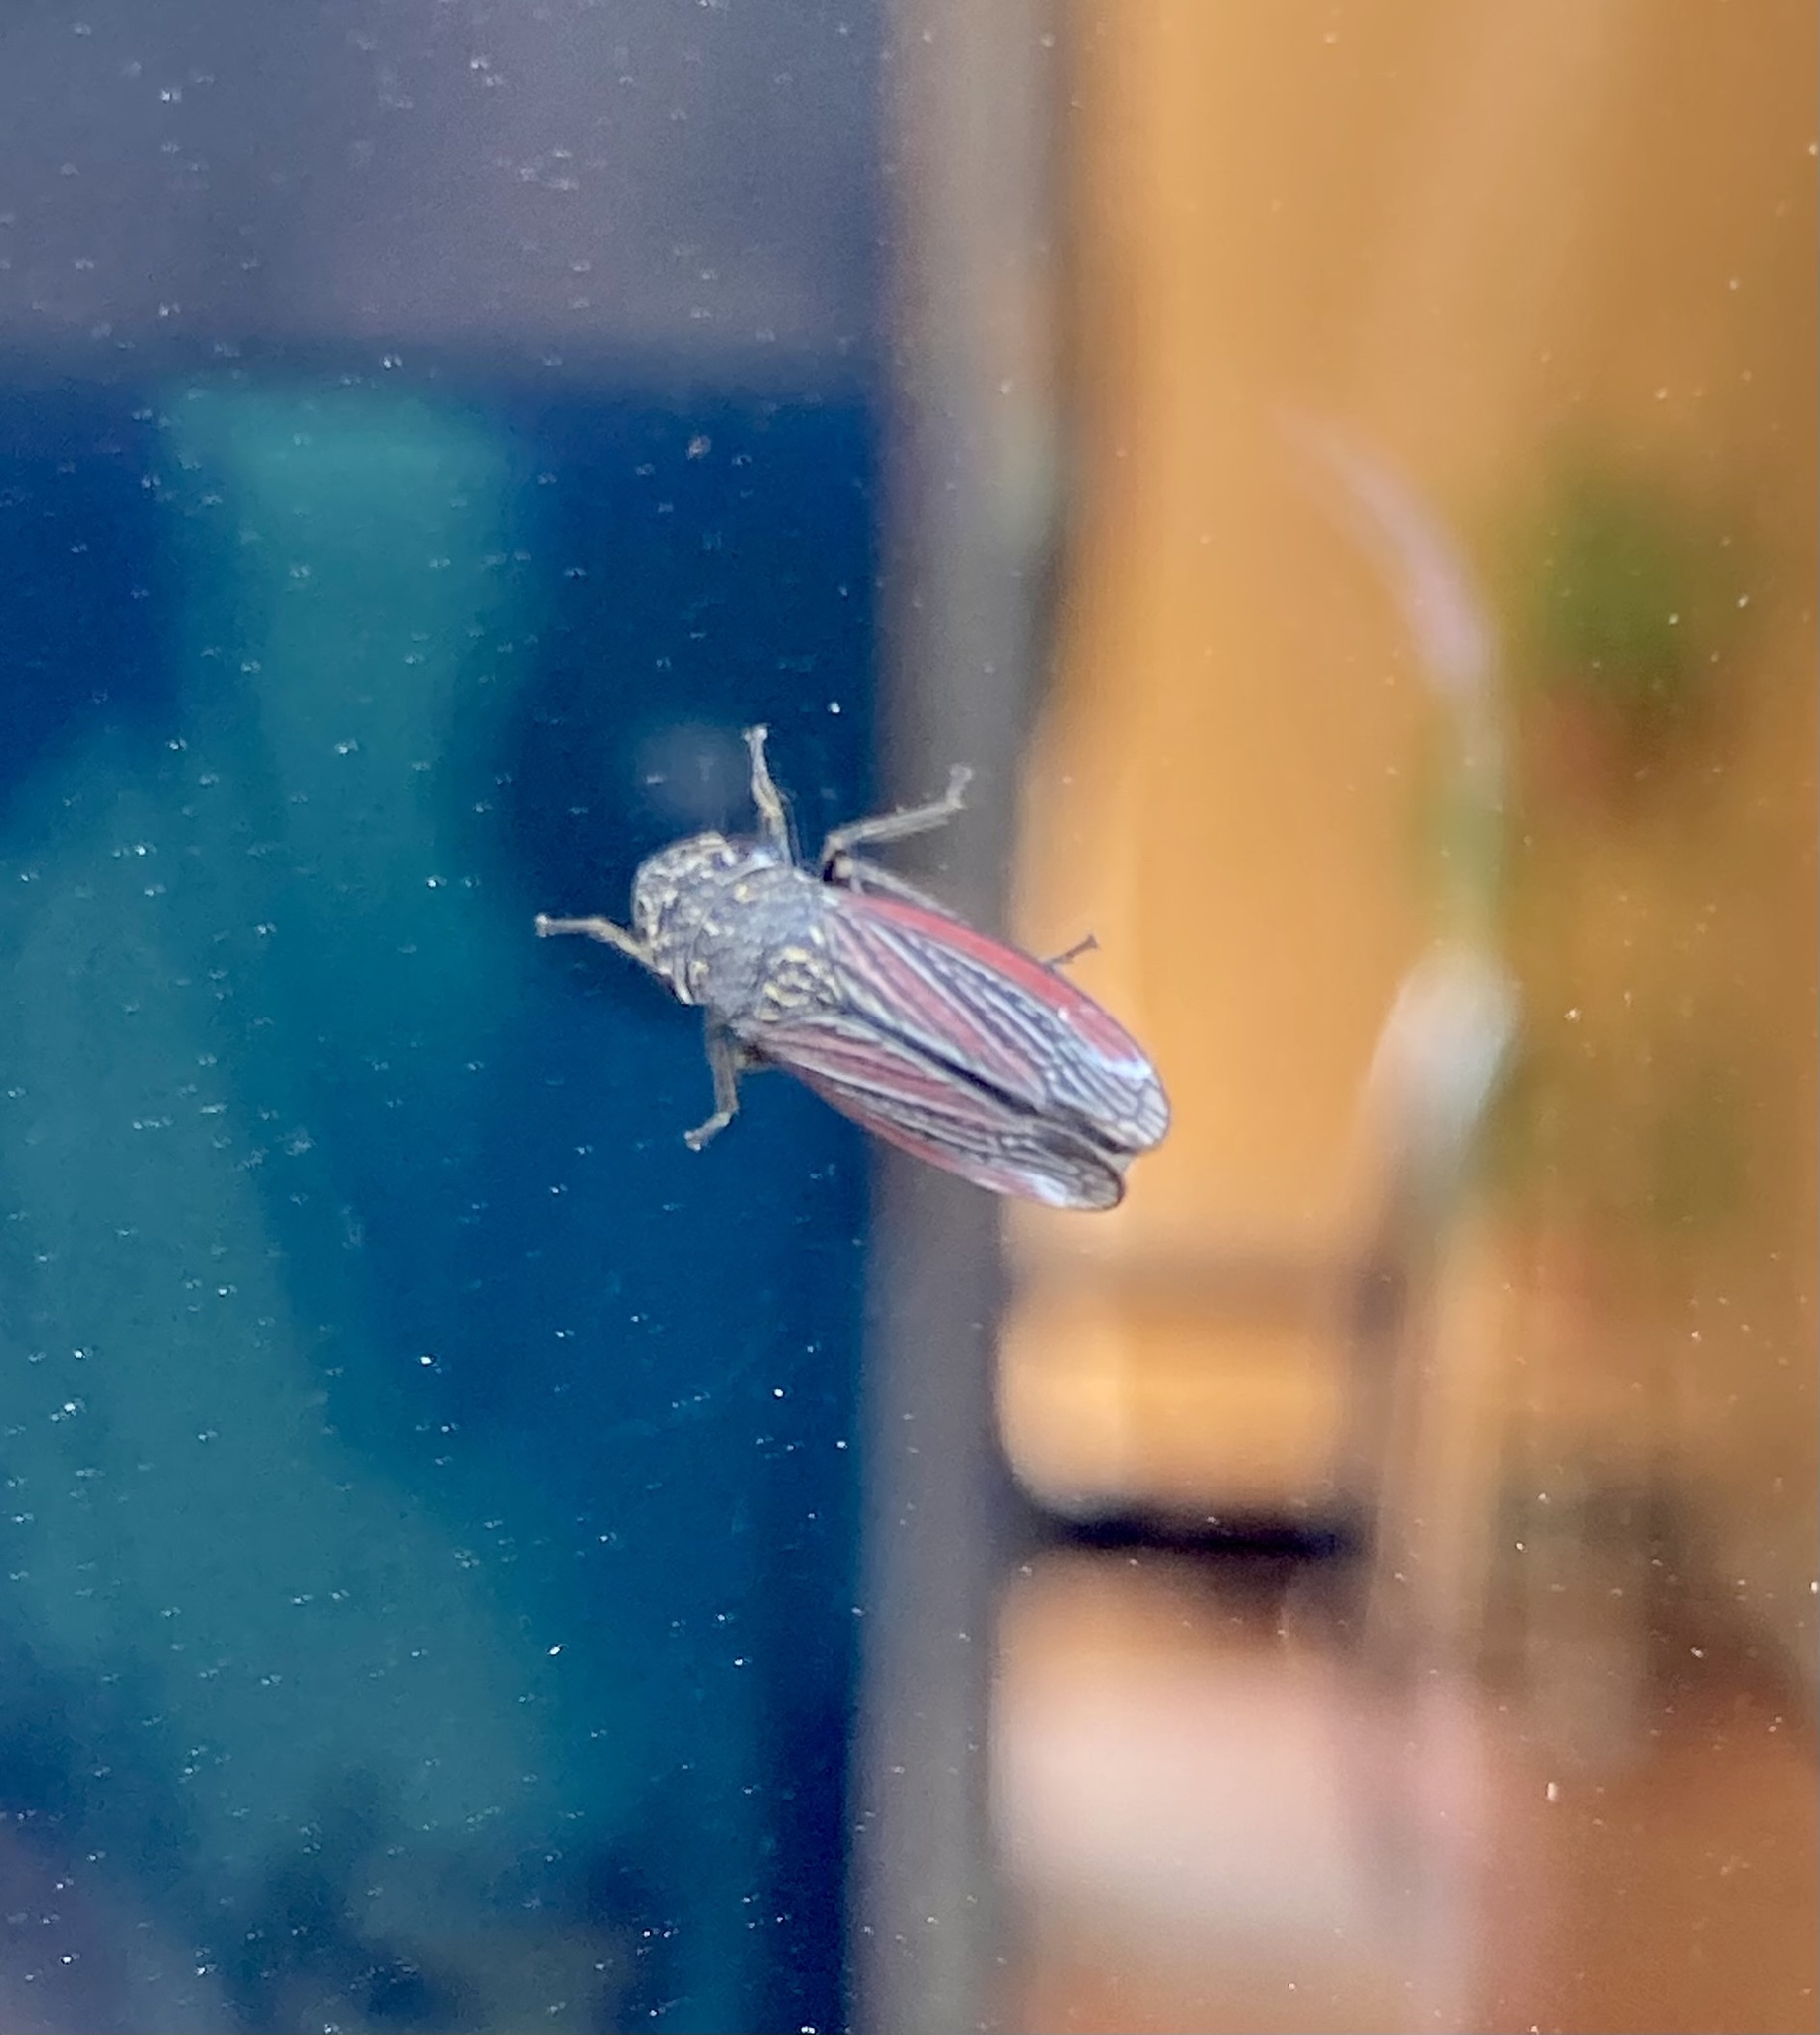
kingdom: Animalia
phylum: Arthropoda
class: Insecta
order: Hemiptera
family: Cicadellidae
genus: Cuerna
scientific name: Cuerna striata
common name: Striped leafhopper
